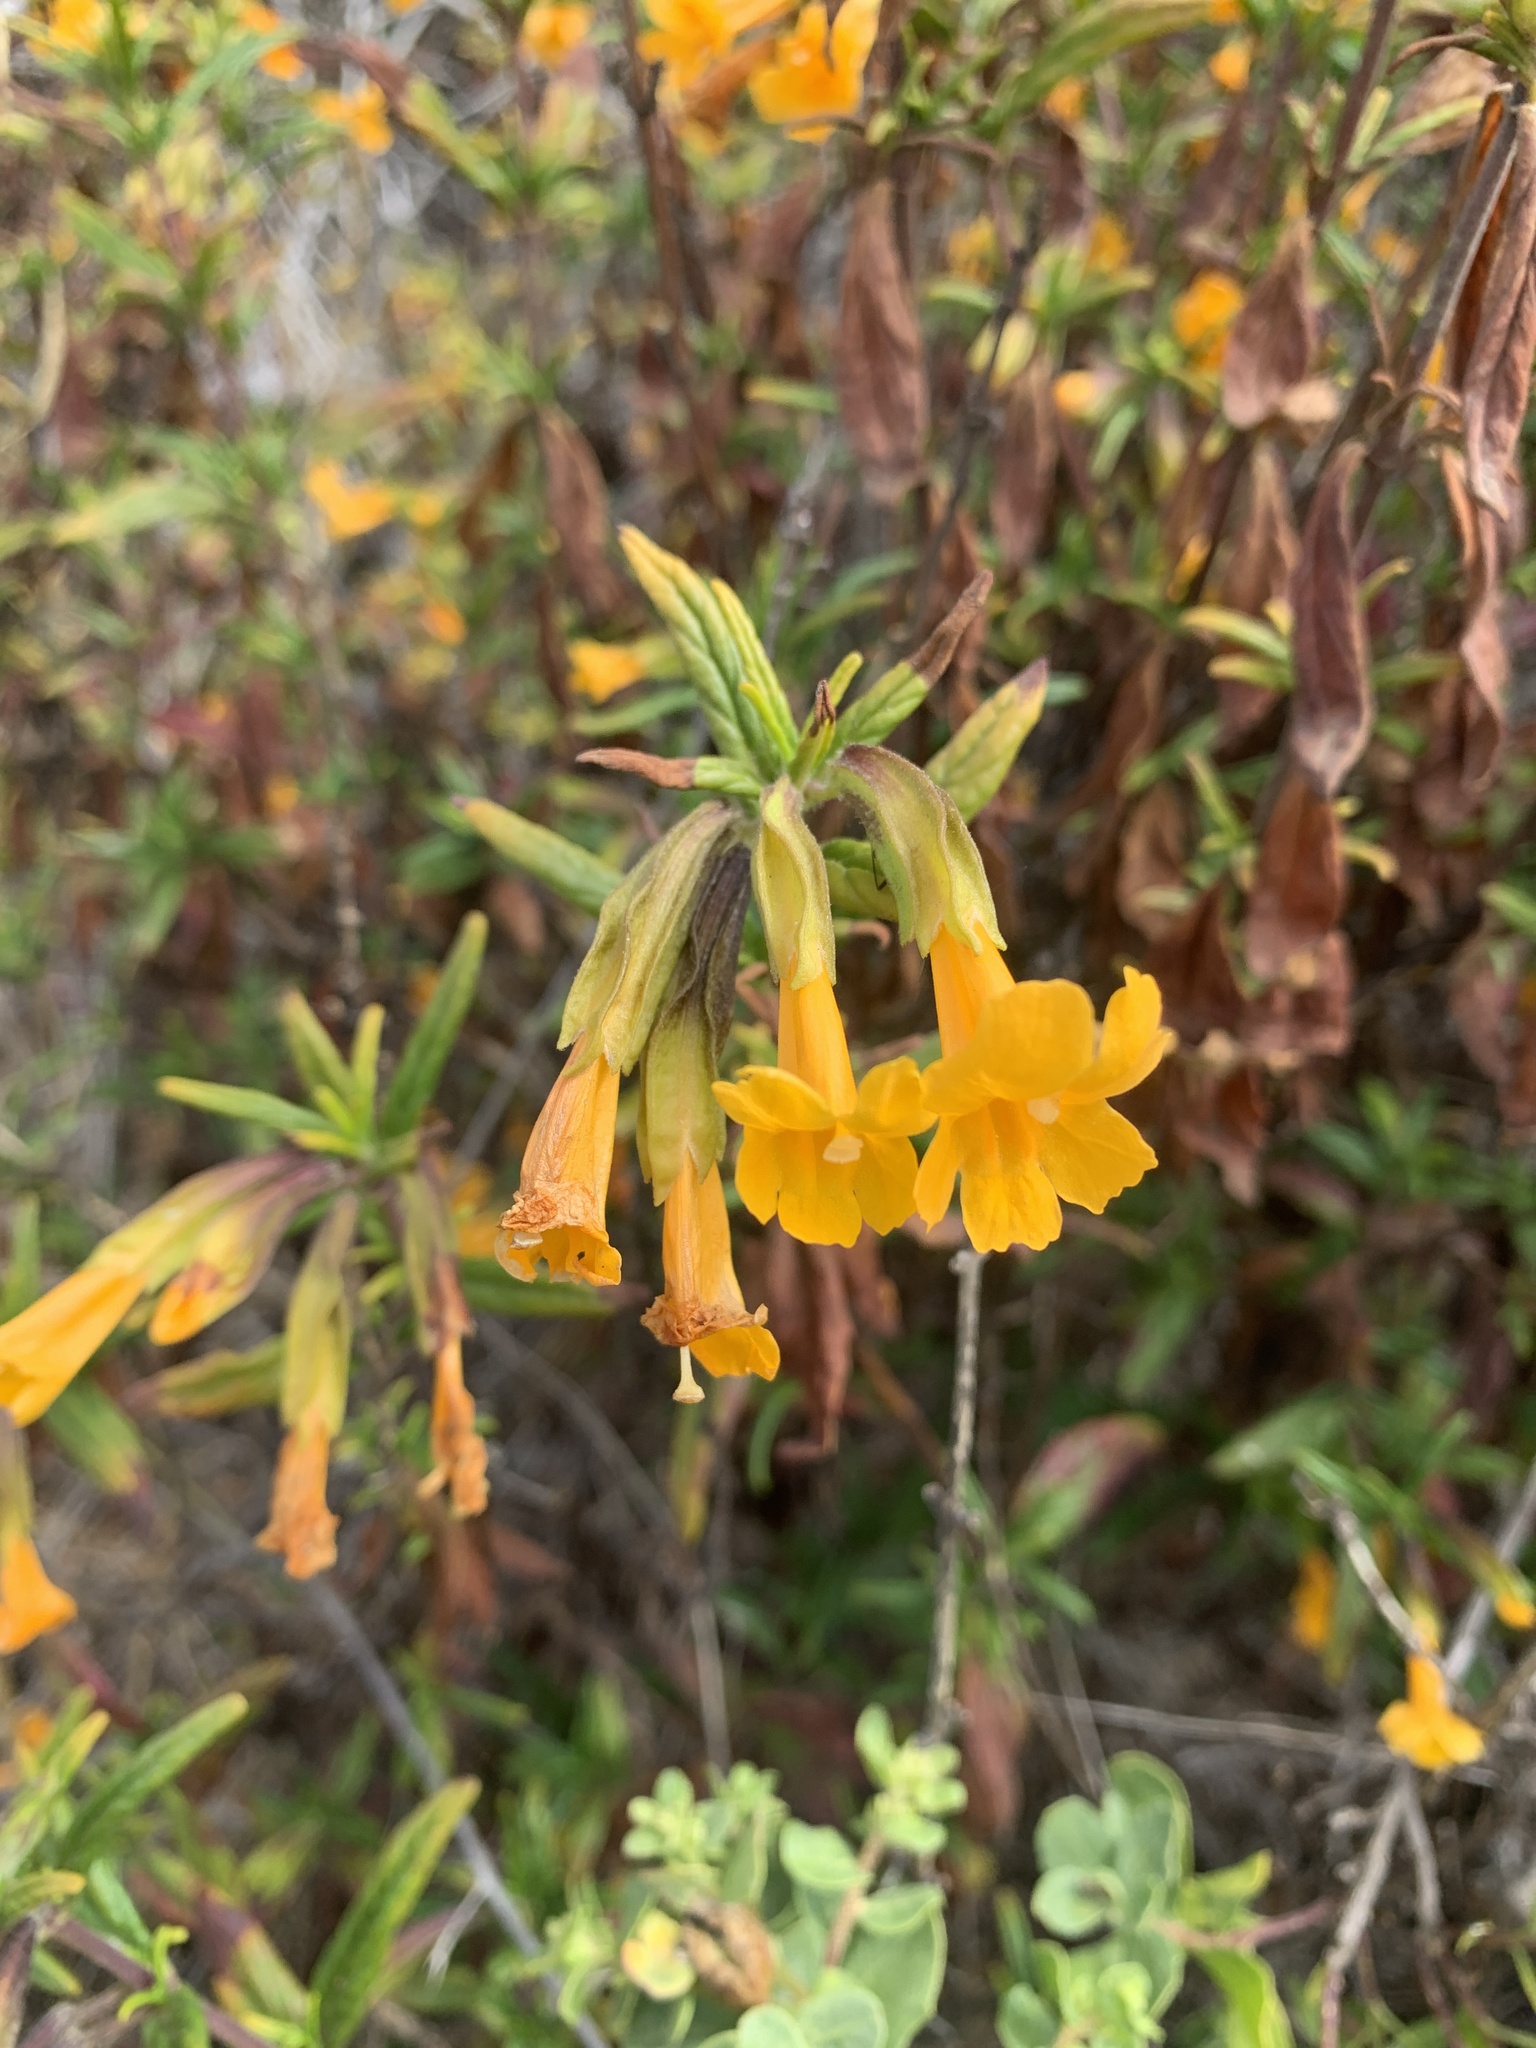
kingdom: Plantae
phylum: Tracheophyta
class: Magnoliopsida
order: Lamiales
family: Phrymaceae
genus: Diplacus
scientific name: Diplacus aurantiacus
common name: Bush monkey-flower
